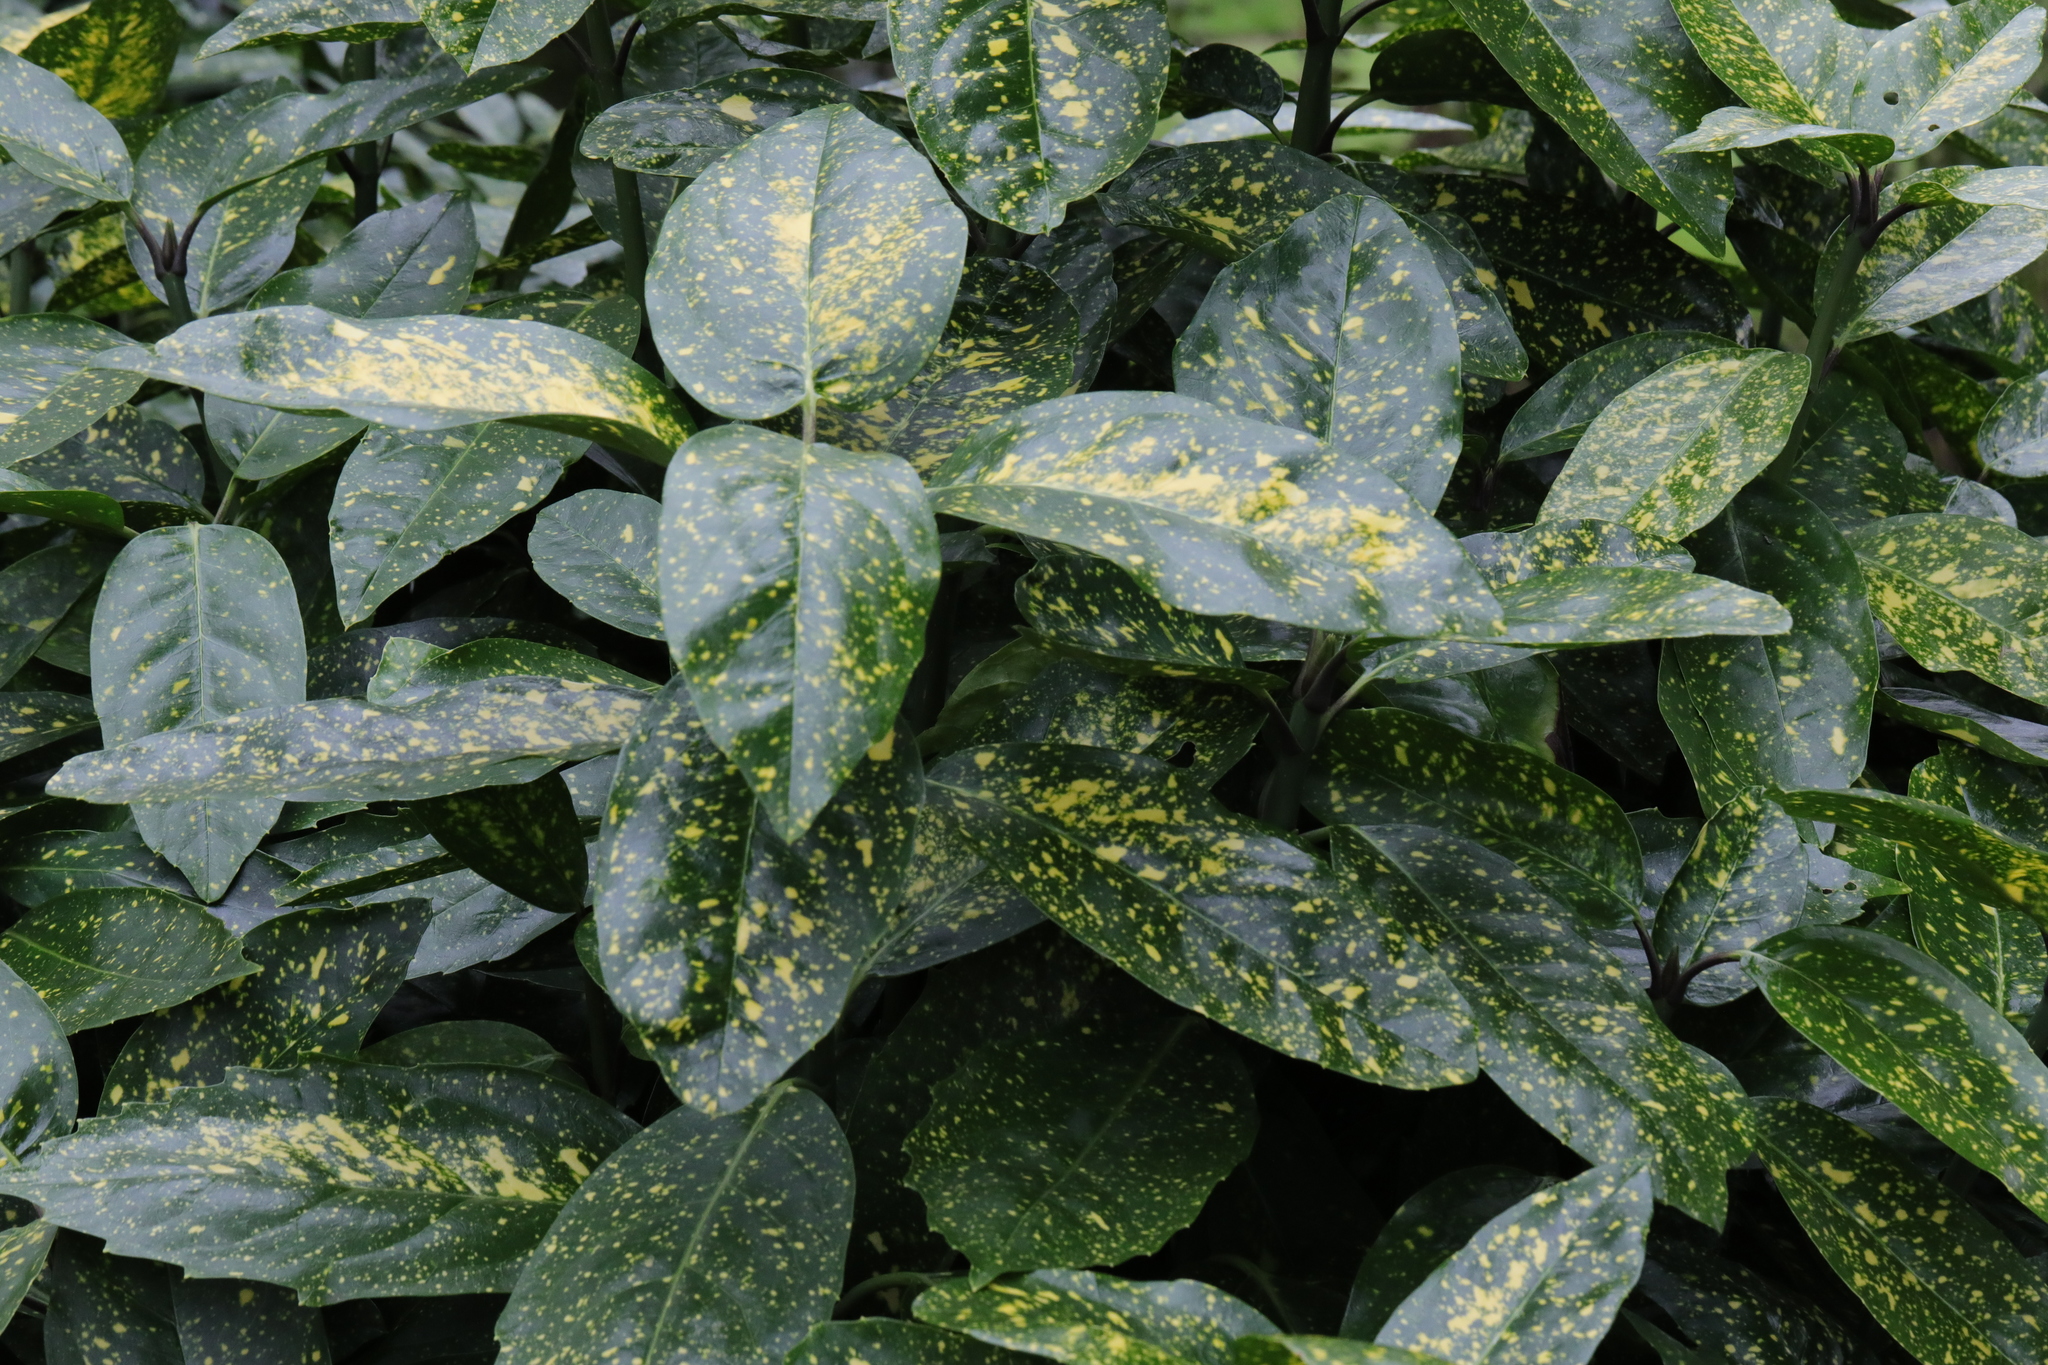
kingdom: Plantae
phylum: Tracheophyta
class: Magnoliopsida
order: Garryales
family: Garryaceae
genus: Aucuba
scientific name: Aucuba japonica
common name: Spotted-laurel
